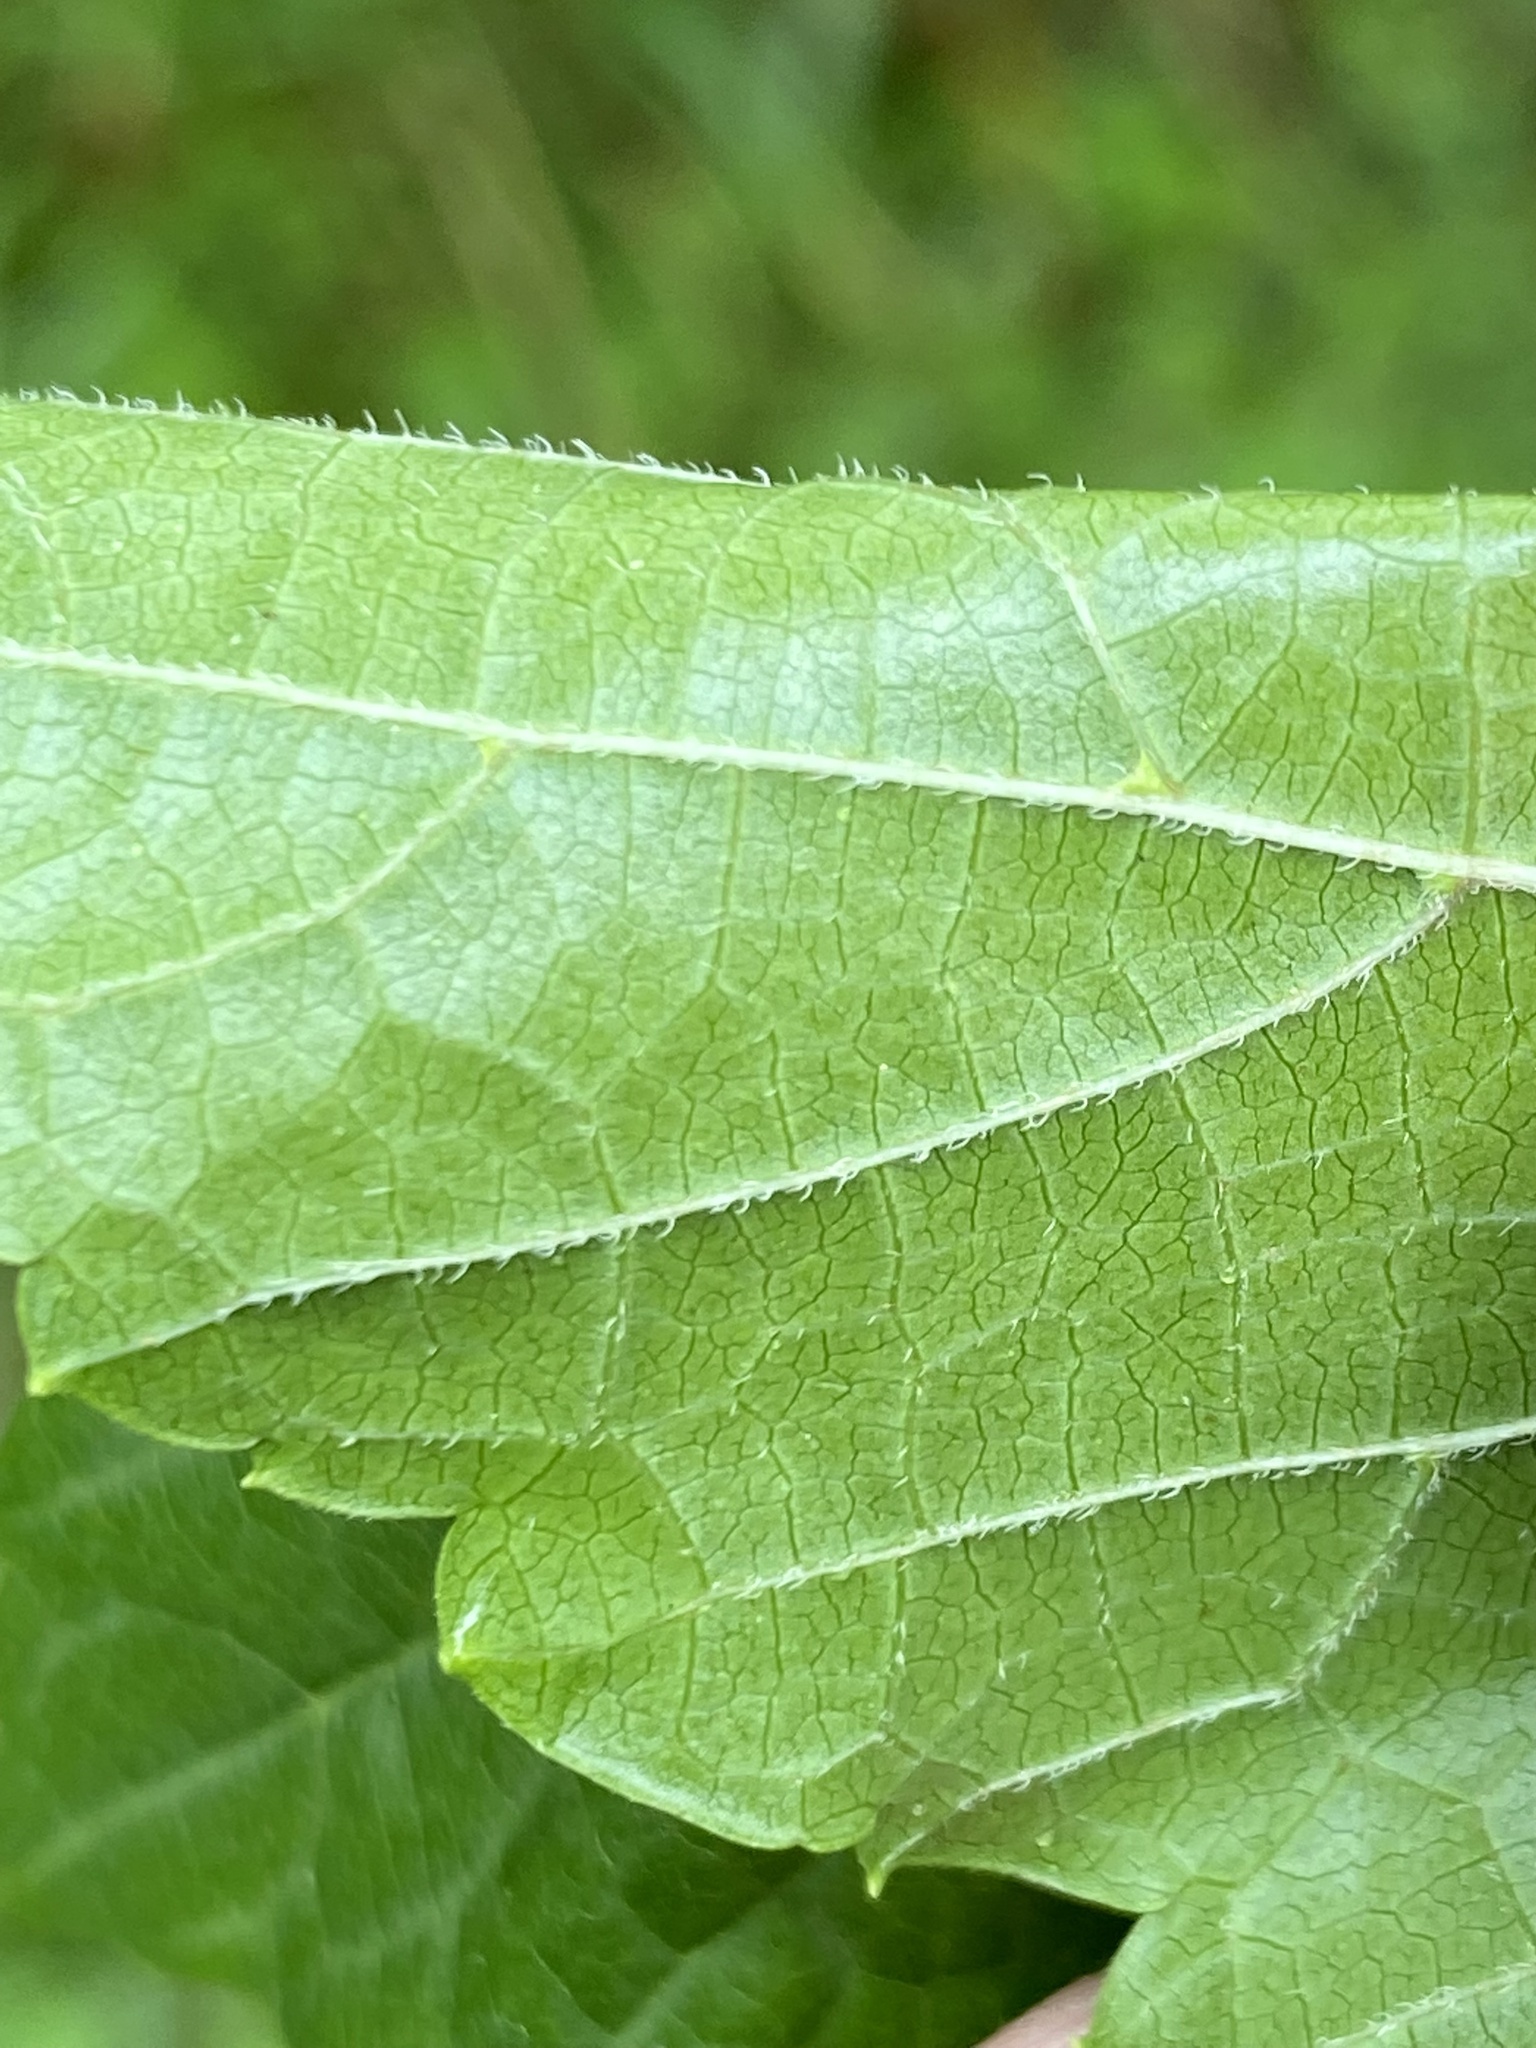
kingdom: Plantae
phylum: Tracheophyta
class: Magnoliopsida
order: Vitales
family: Vitaceae
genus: Ampelopsis
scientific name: Ampelopsis glandulosa
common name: Amur peppervine
